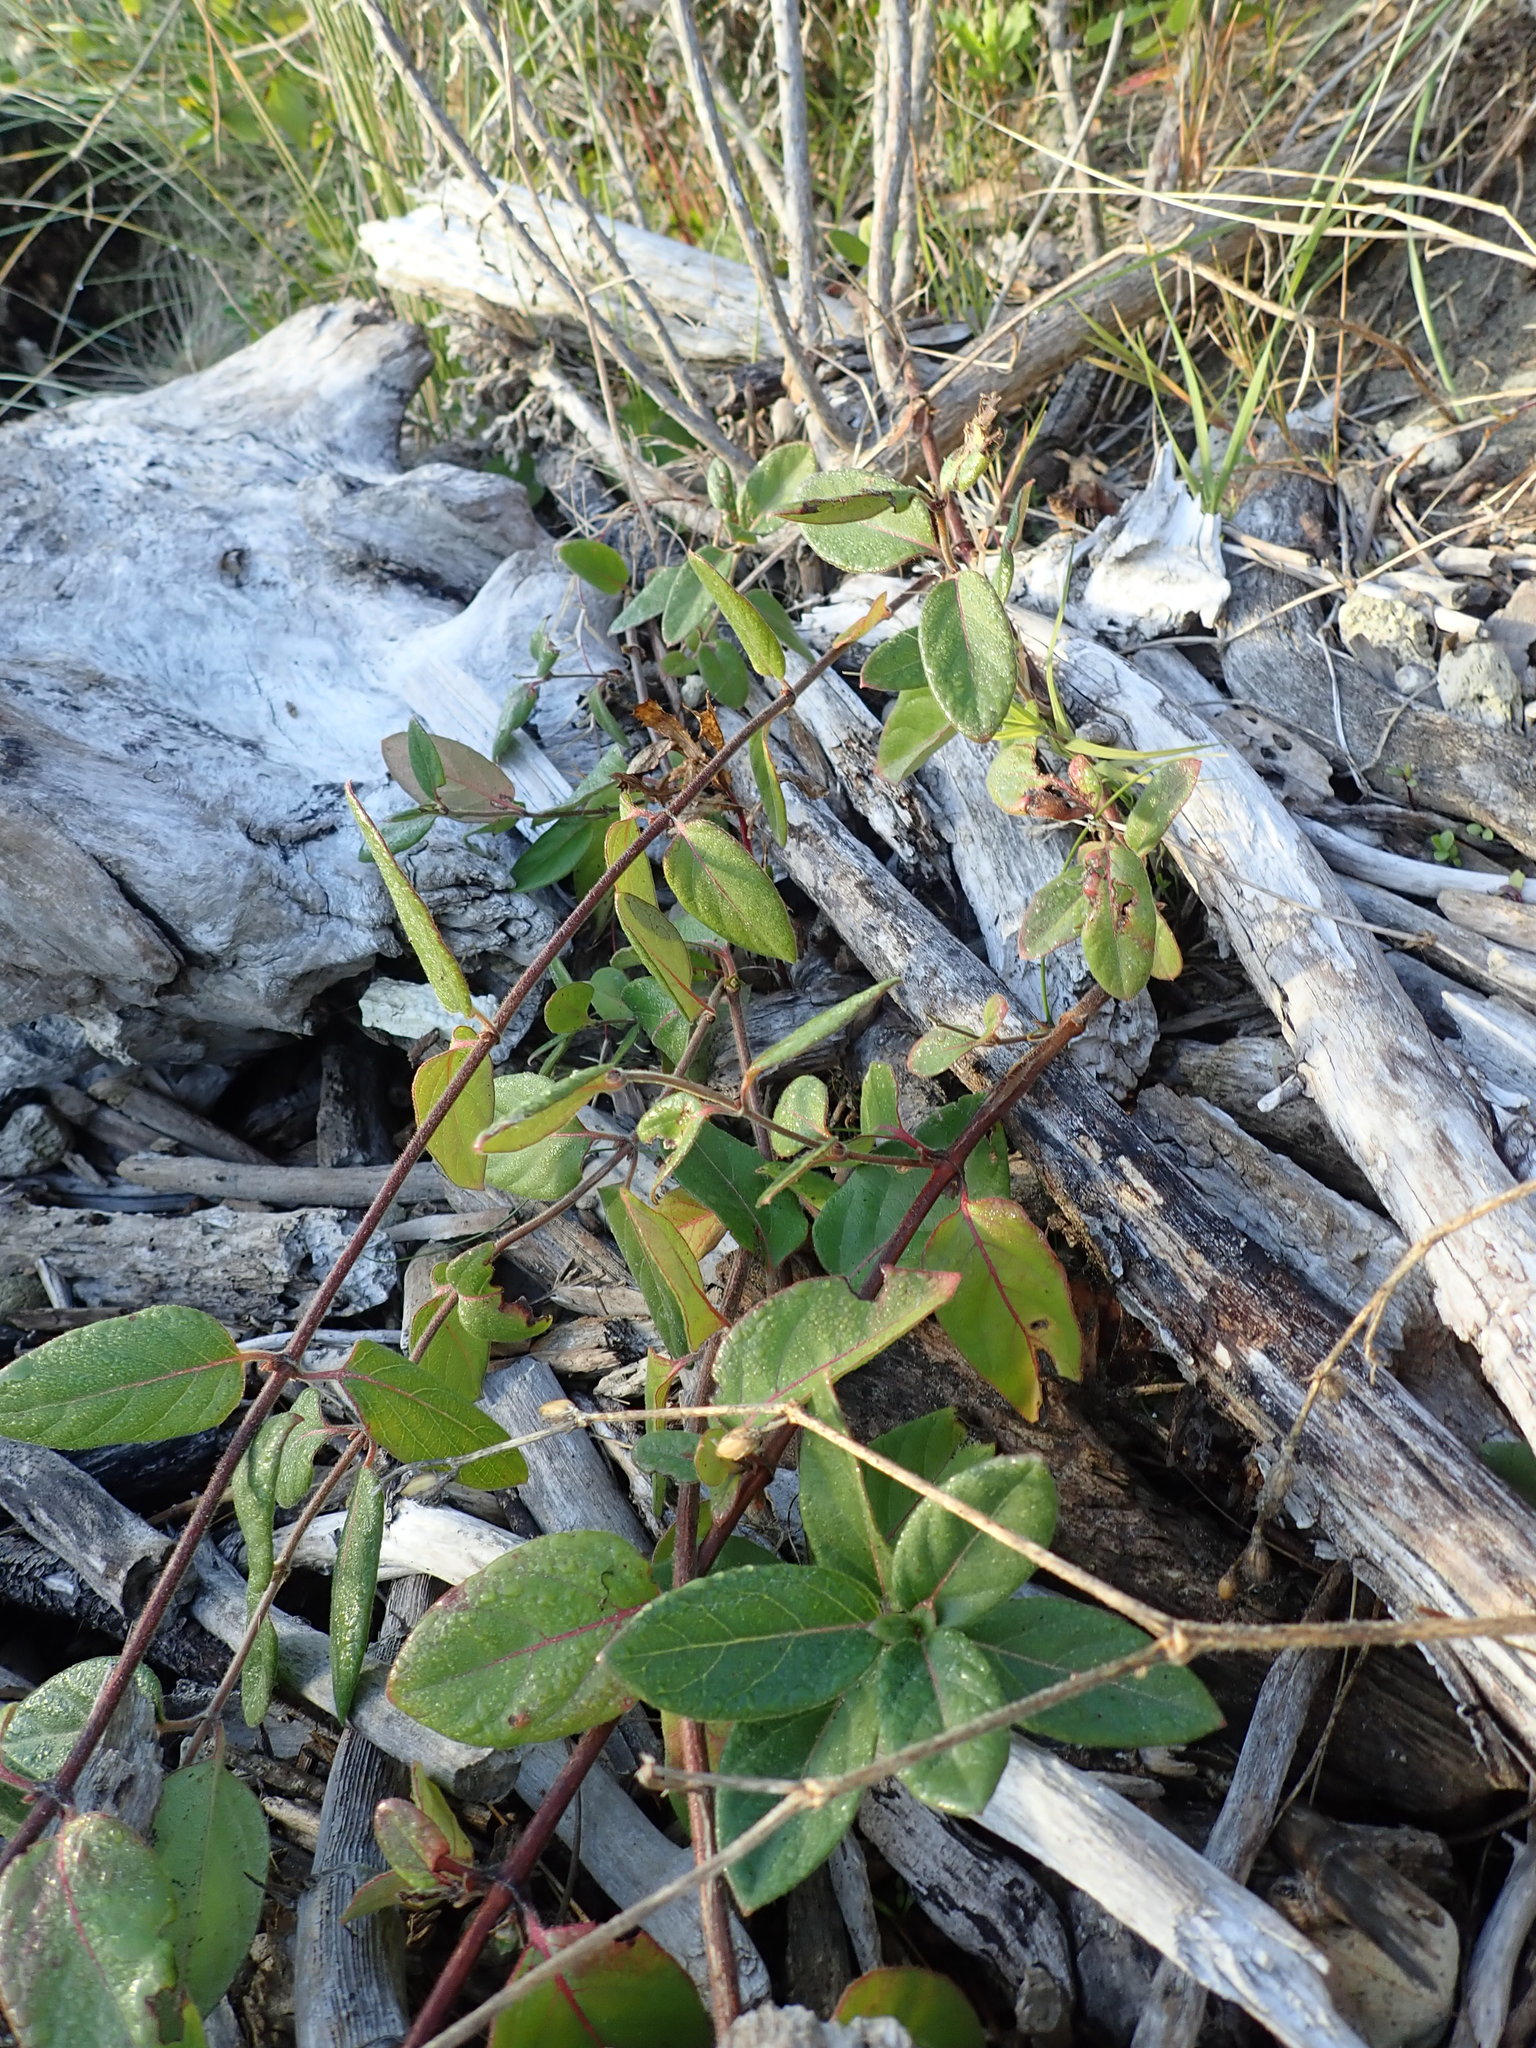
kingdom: Plantae
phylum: Tracheophyta
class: Magnoliopsida
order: Dipsacales
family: Caprifoliaceae
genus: Lonicera
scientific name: Lonicera japonica
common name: Japanese honeysuckle
